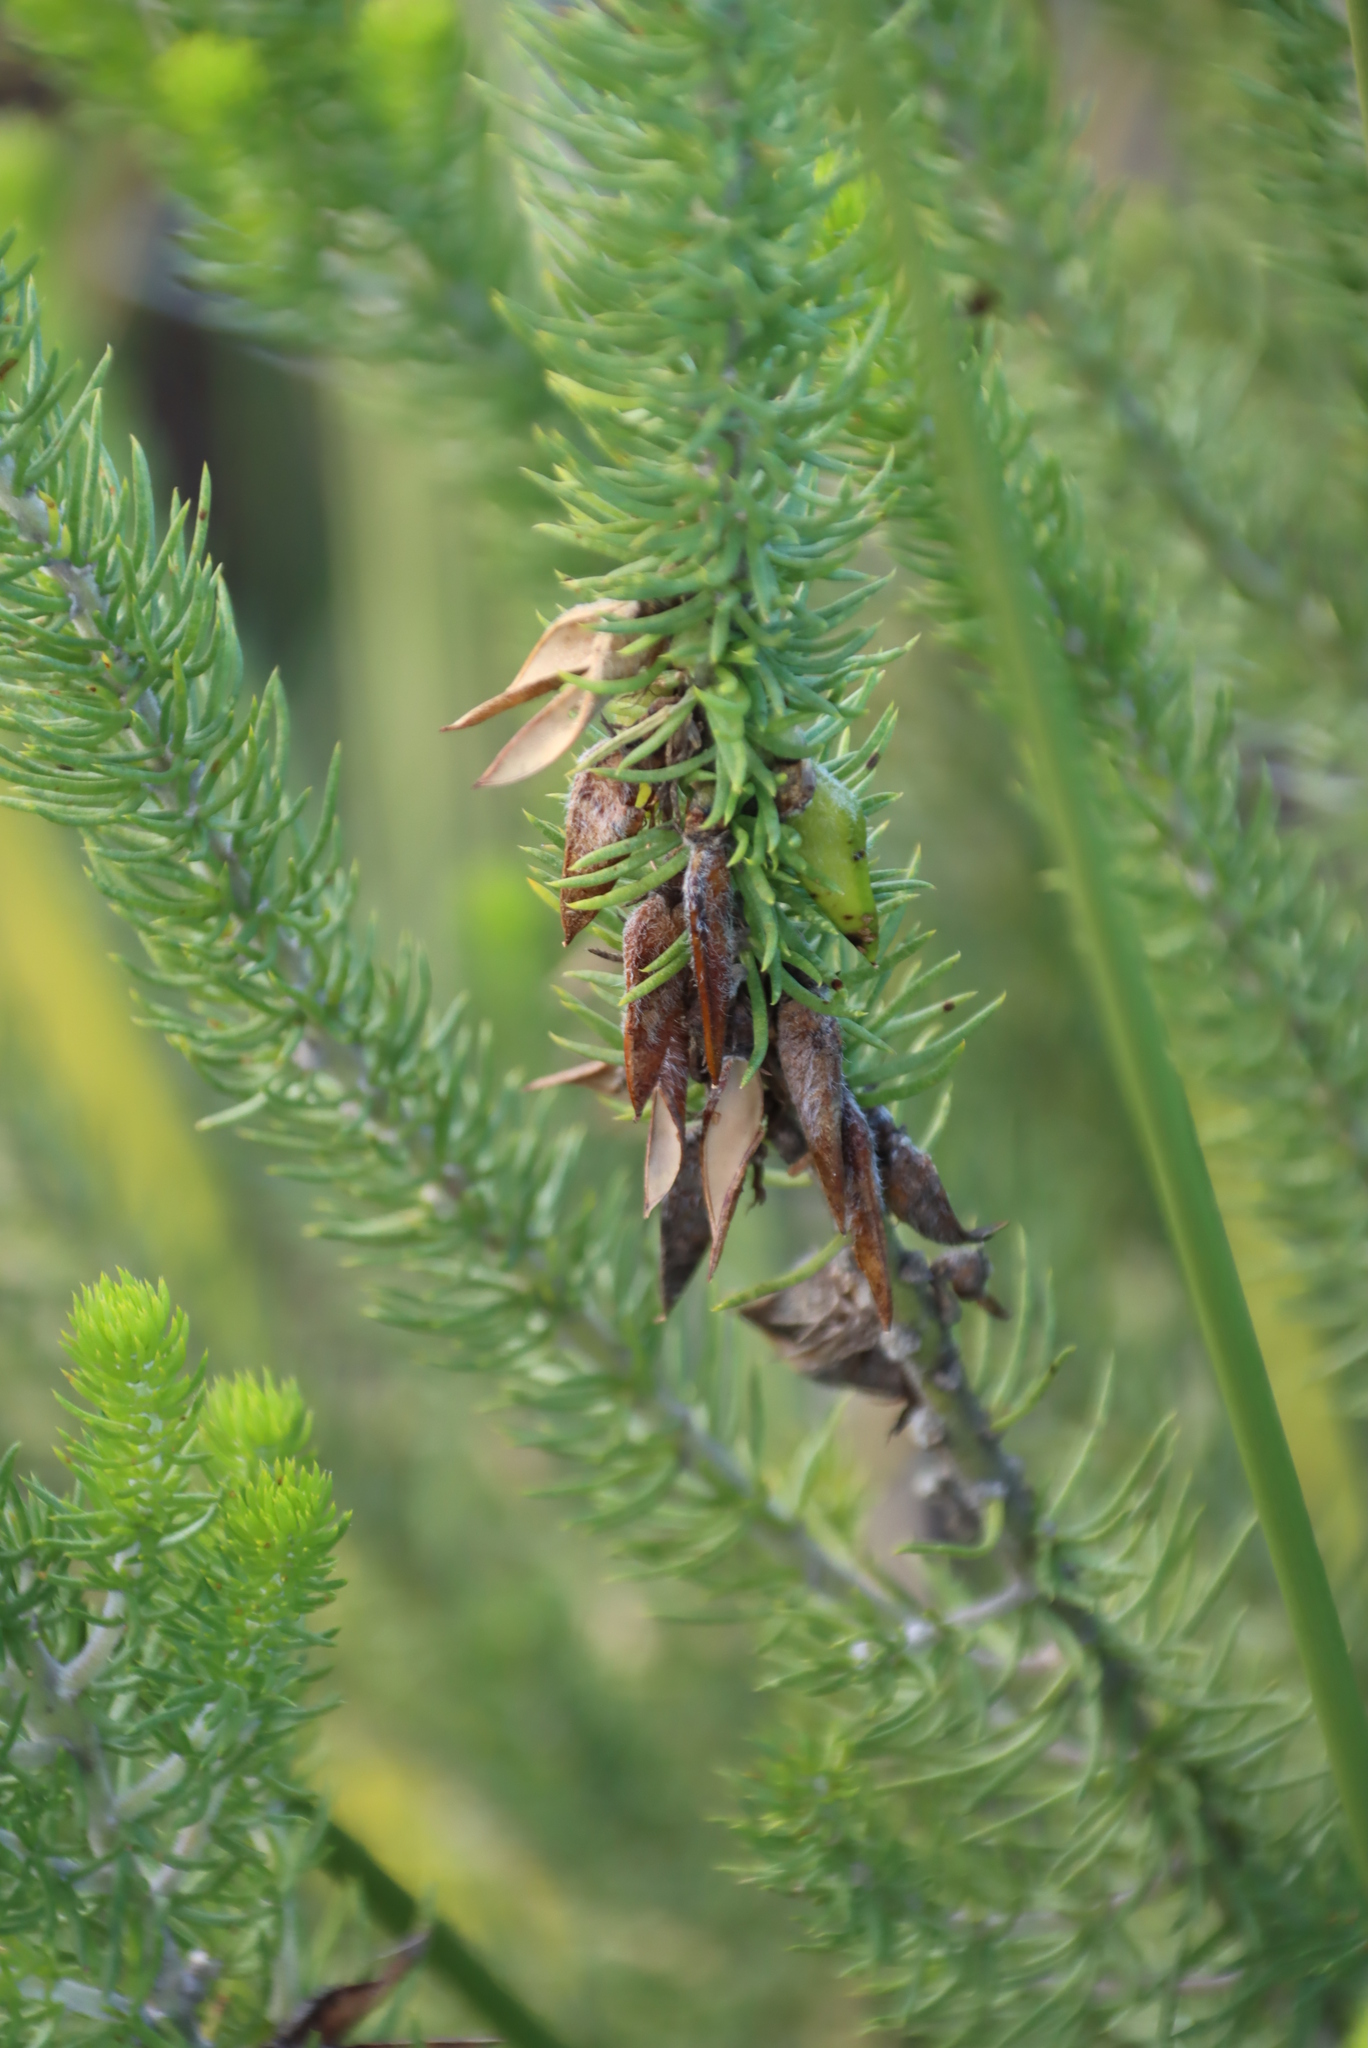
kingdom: Plantae
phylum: Tracheophyta
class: Magnoliopsida
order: Fabales
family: Fabaceae
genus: Aspalathus
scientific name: Aspalathus alopecurus
